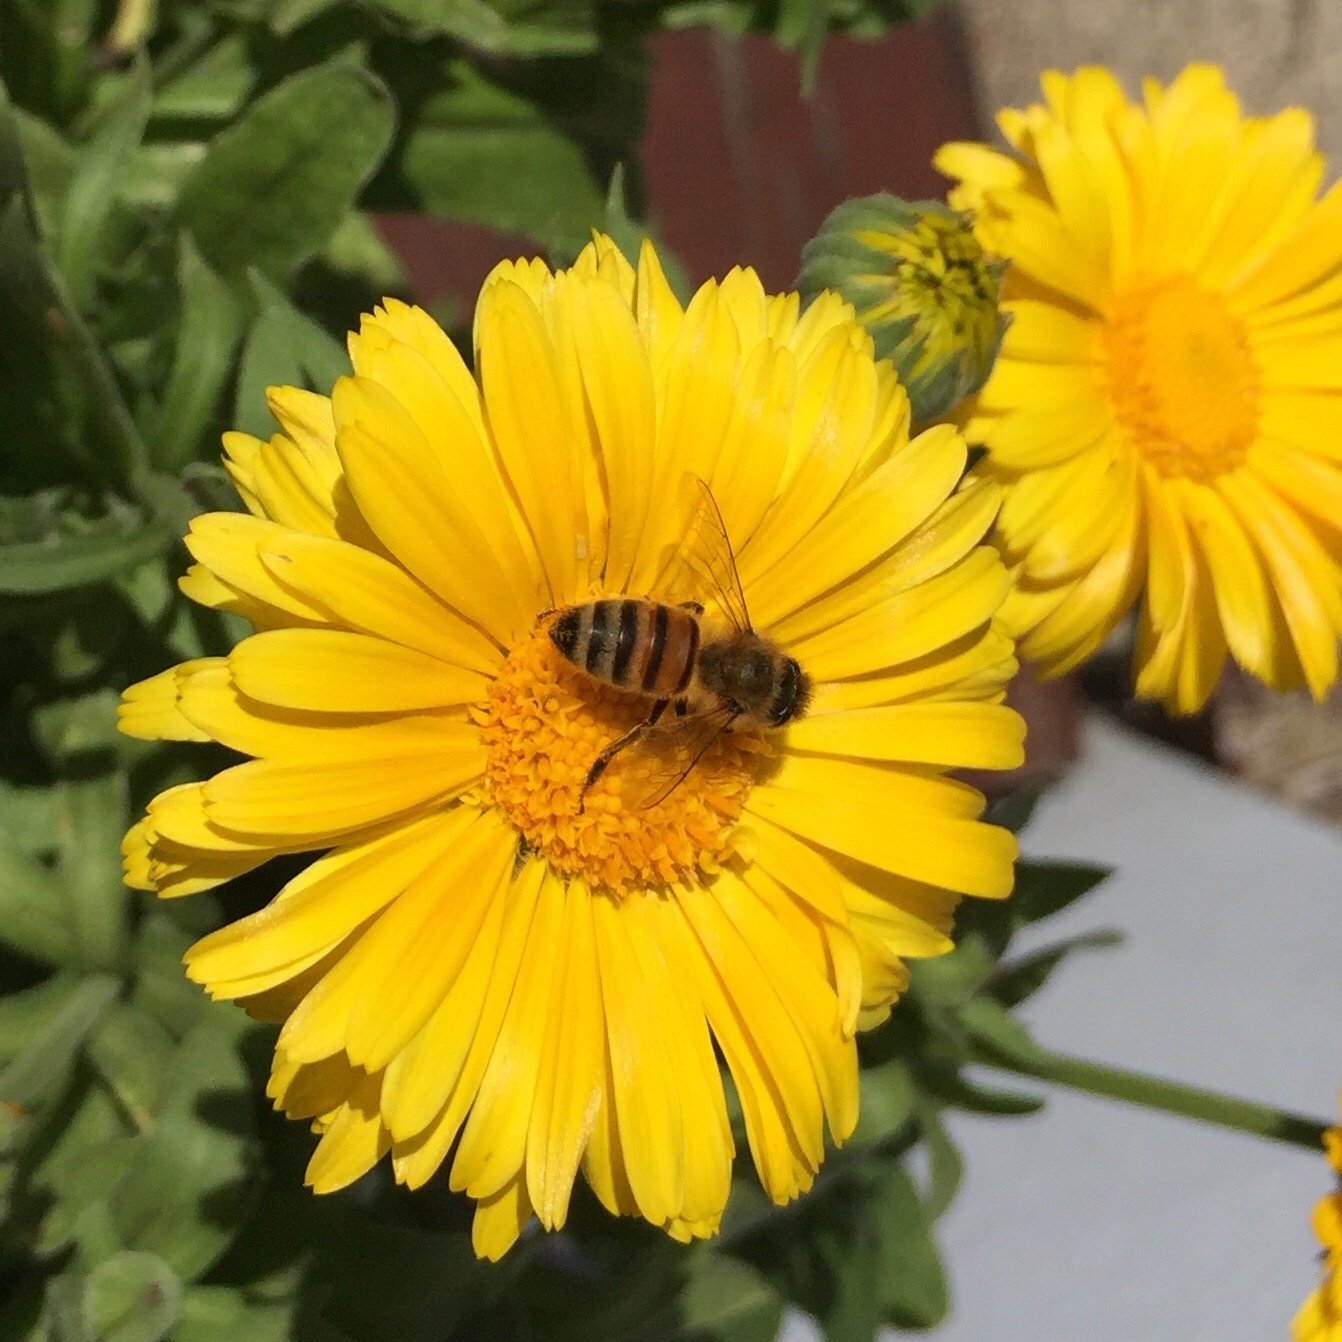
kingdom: Animalia
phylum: Arthropoda
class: Insecta
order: Hymenoptera
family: Apidae
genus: Apis
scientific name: Apis mellifera
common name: Honey bee
